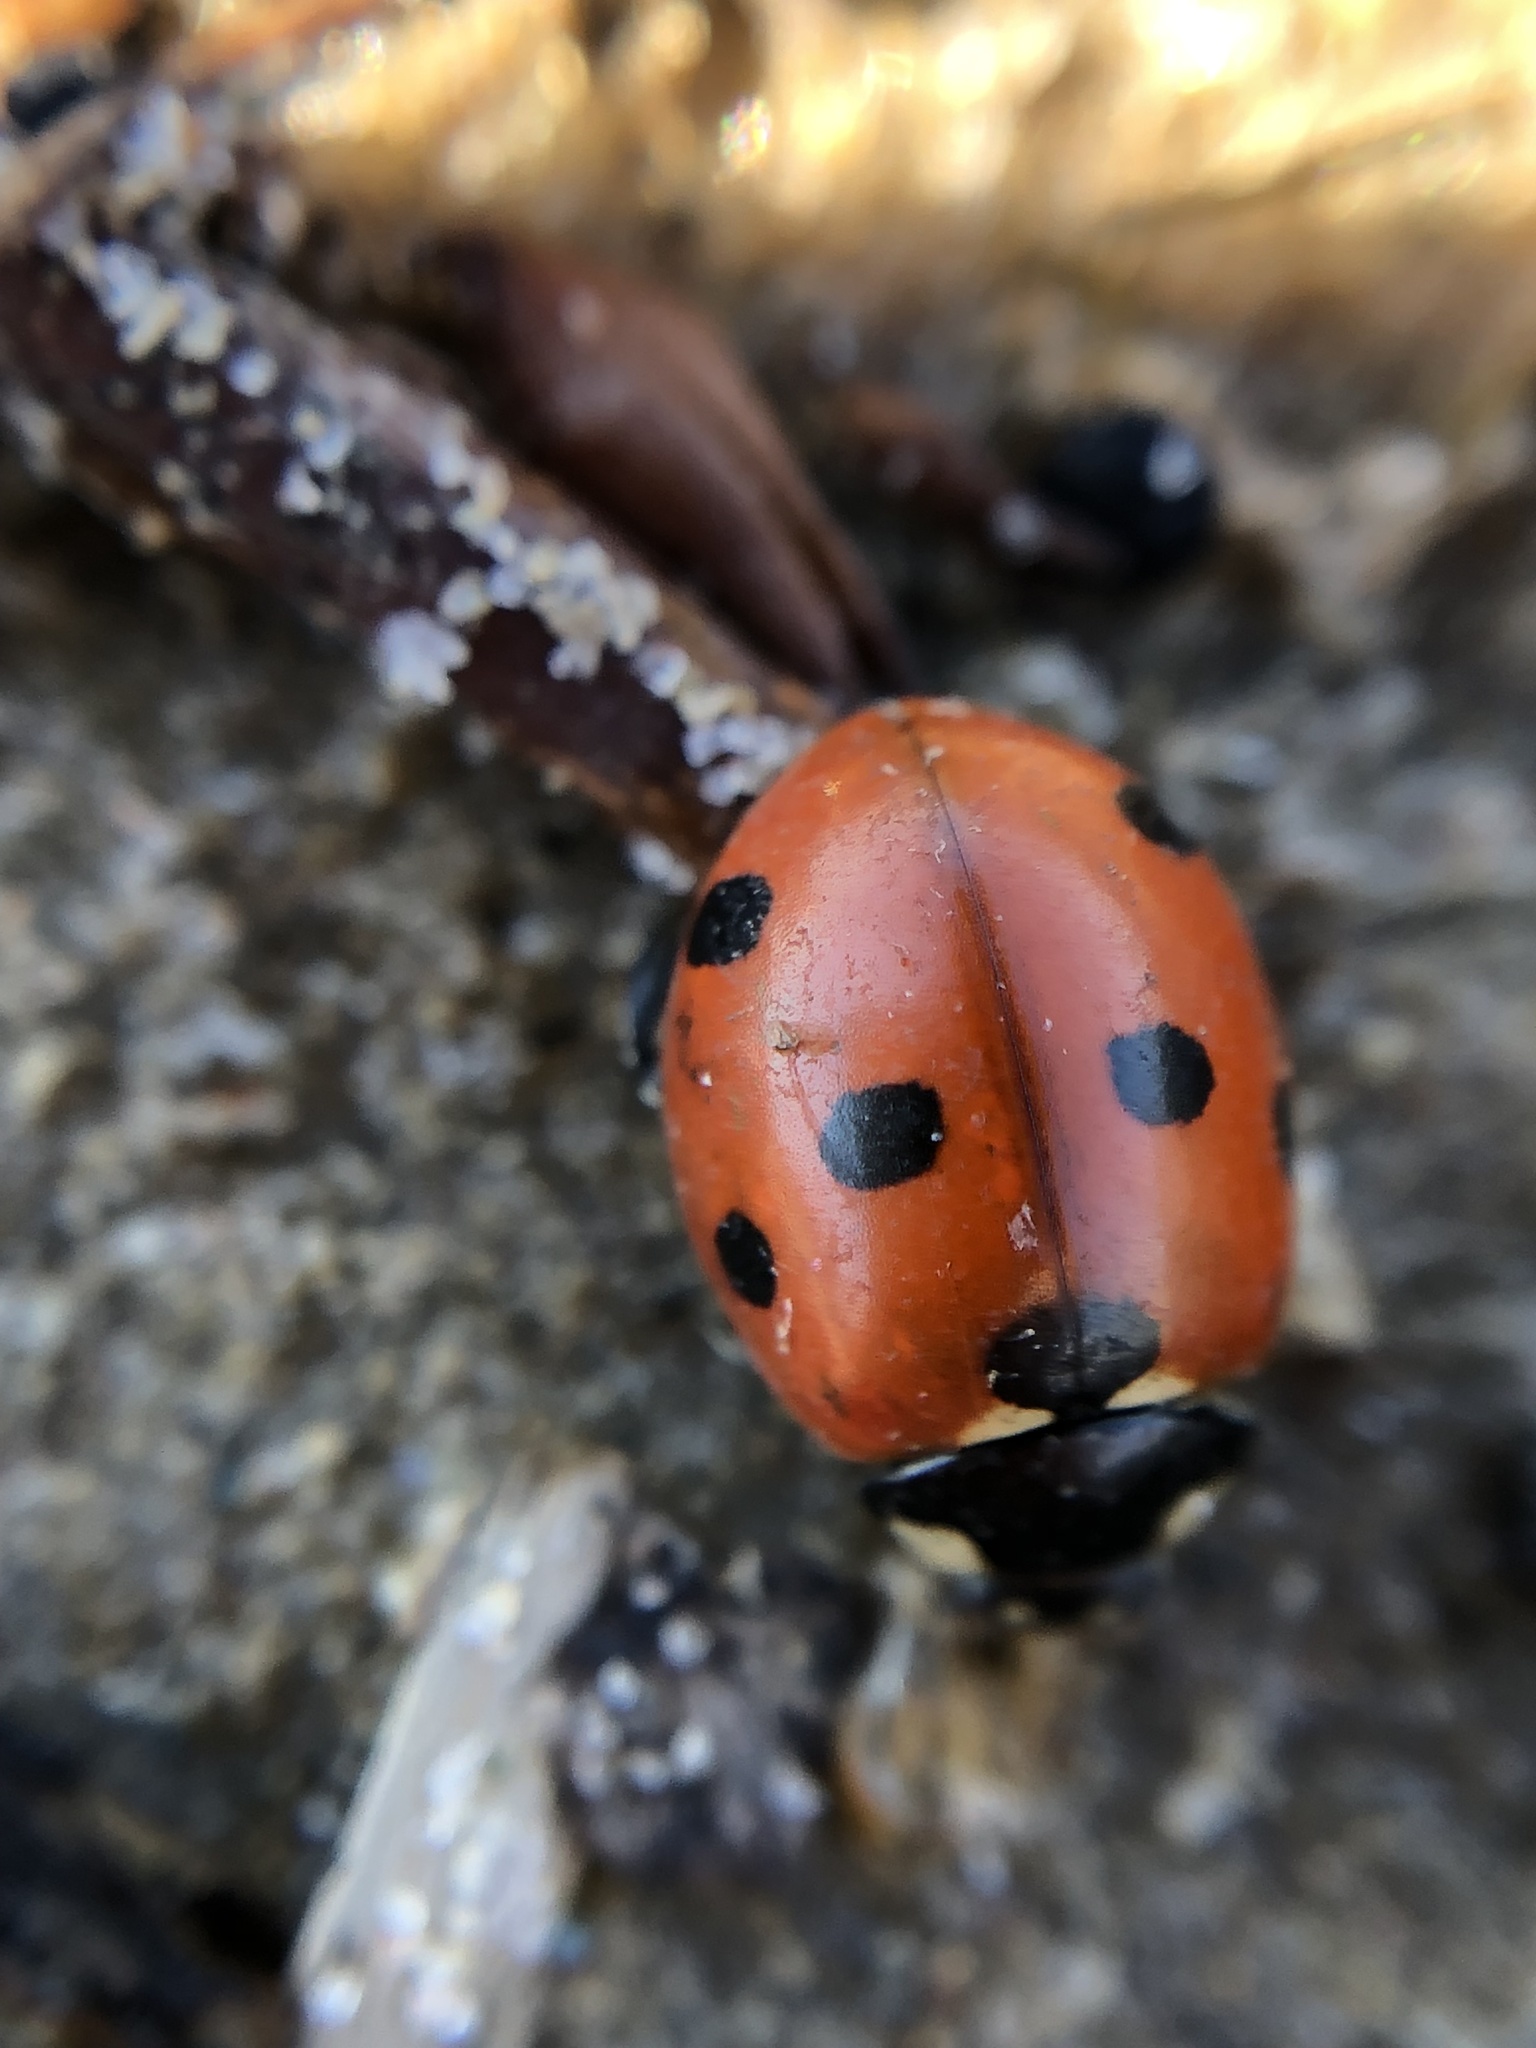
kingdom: Animalia
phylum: Arthropoda
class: Insecta
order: Coleoptera
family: Coccinellidae
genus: Coccinella
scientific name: Coccinella septempunctata
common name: Sevenspotted lady beetle
